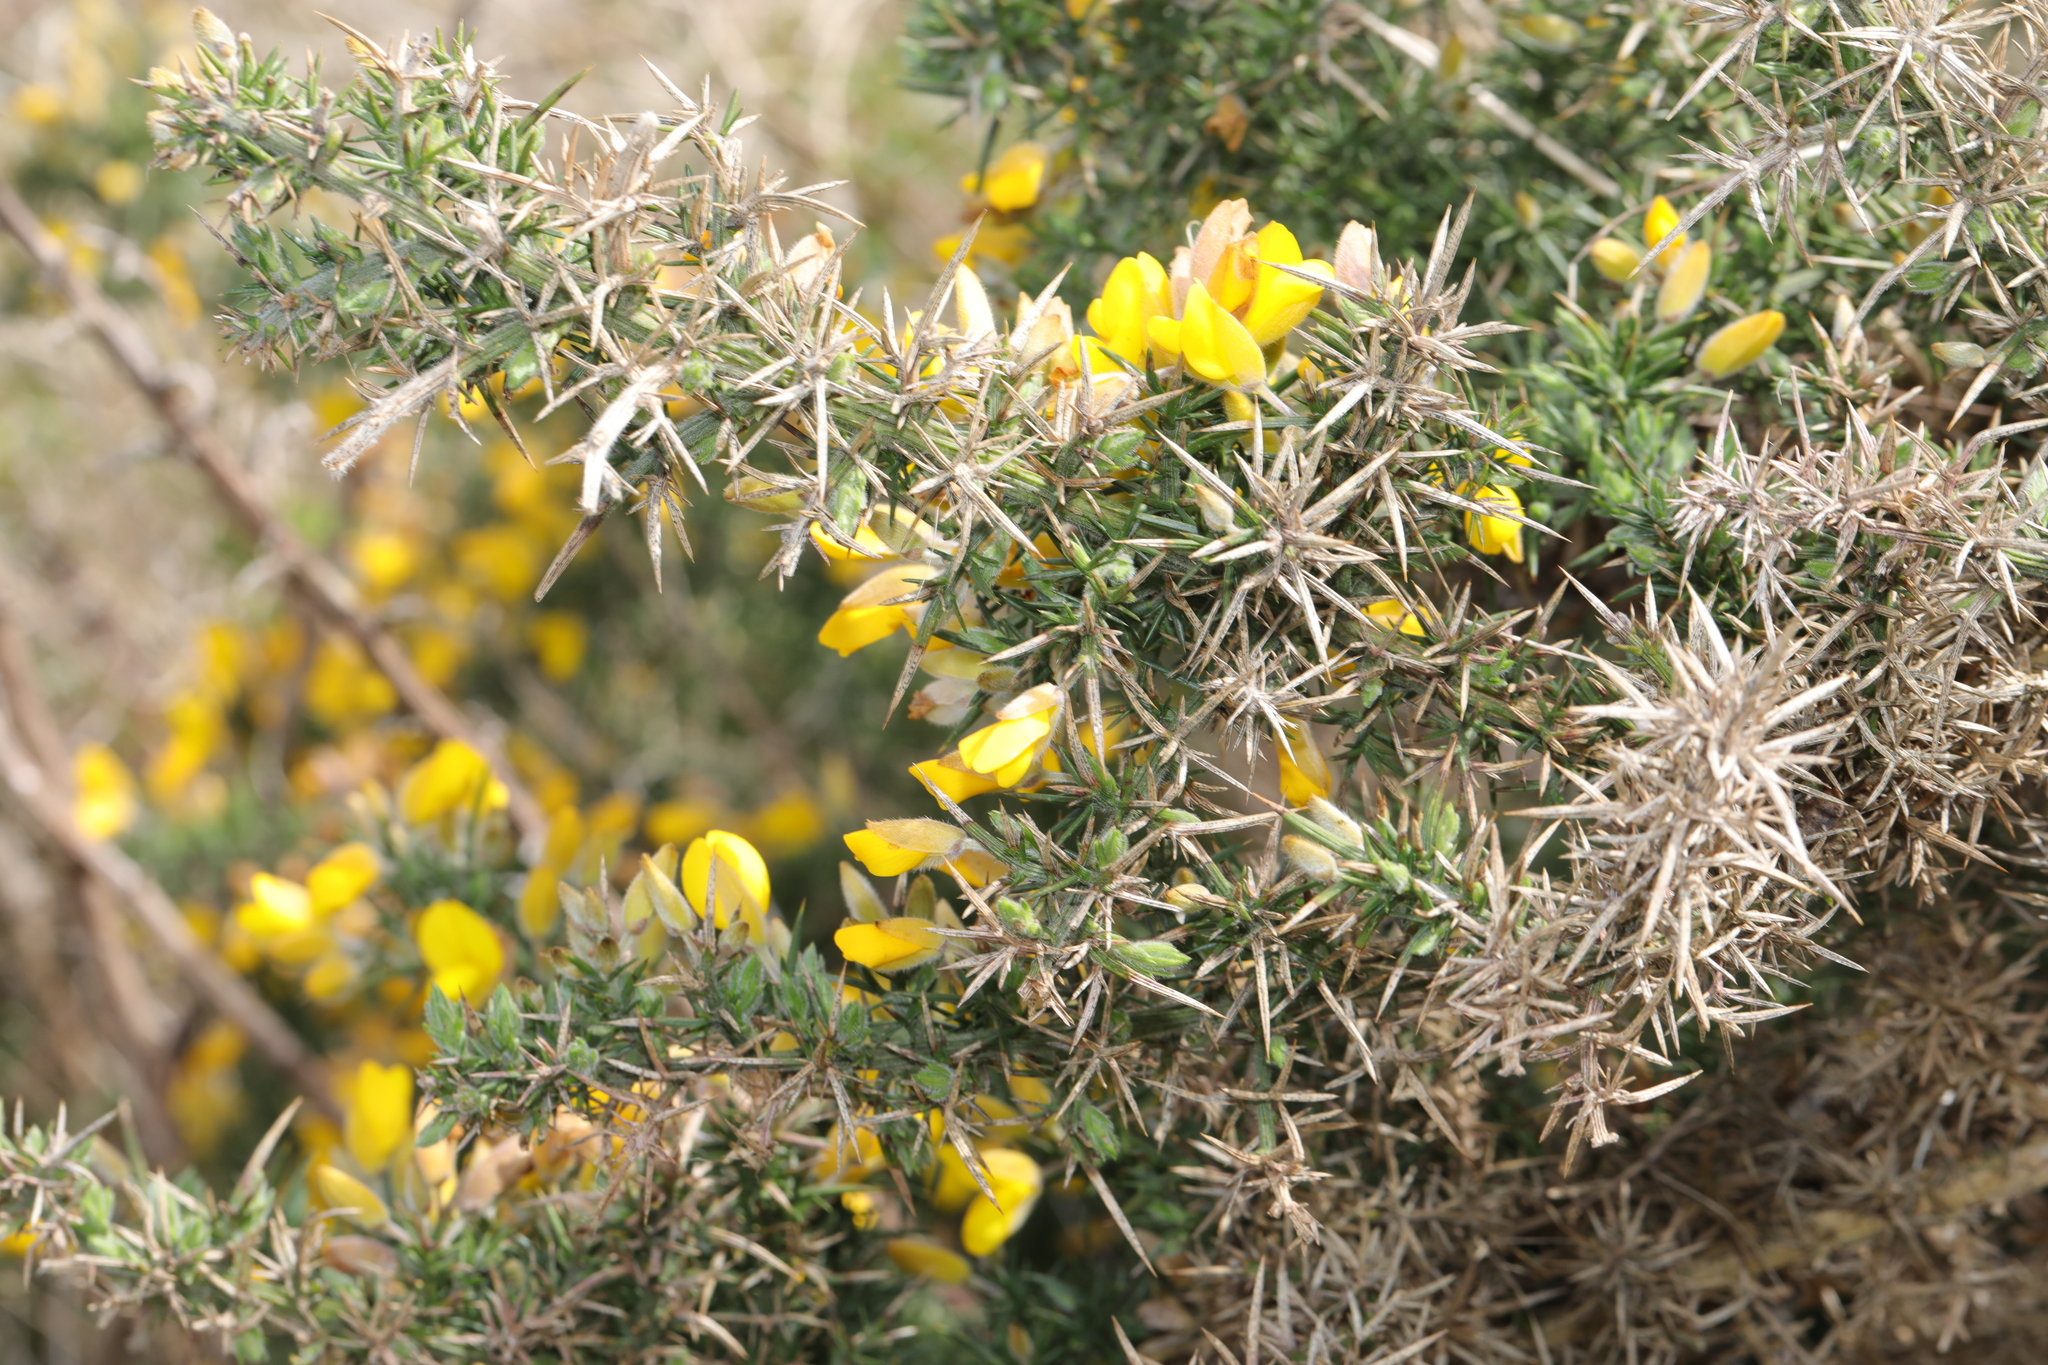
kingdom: Plantae
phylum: Tracheophyta
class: Magnoliopsida
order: Fabales
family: Fabaceae
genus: Ulex
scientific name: Ulex europaeus
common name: Common gorse
